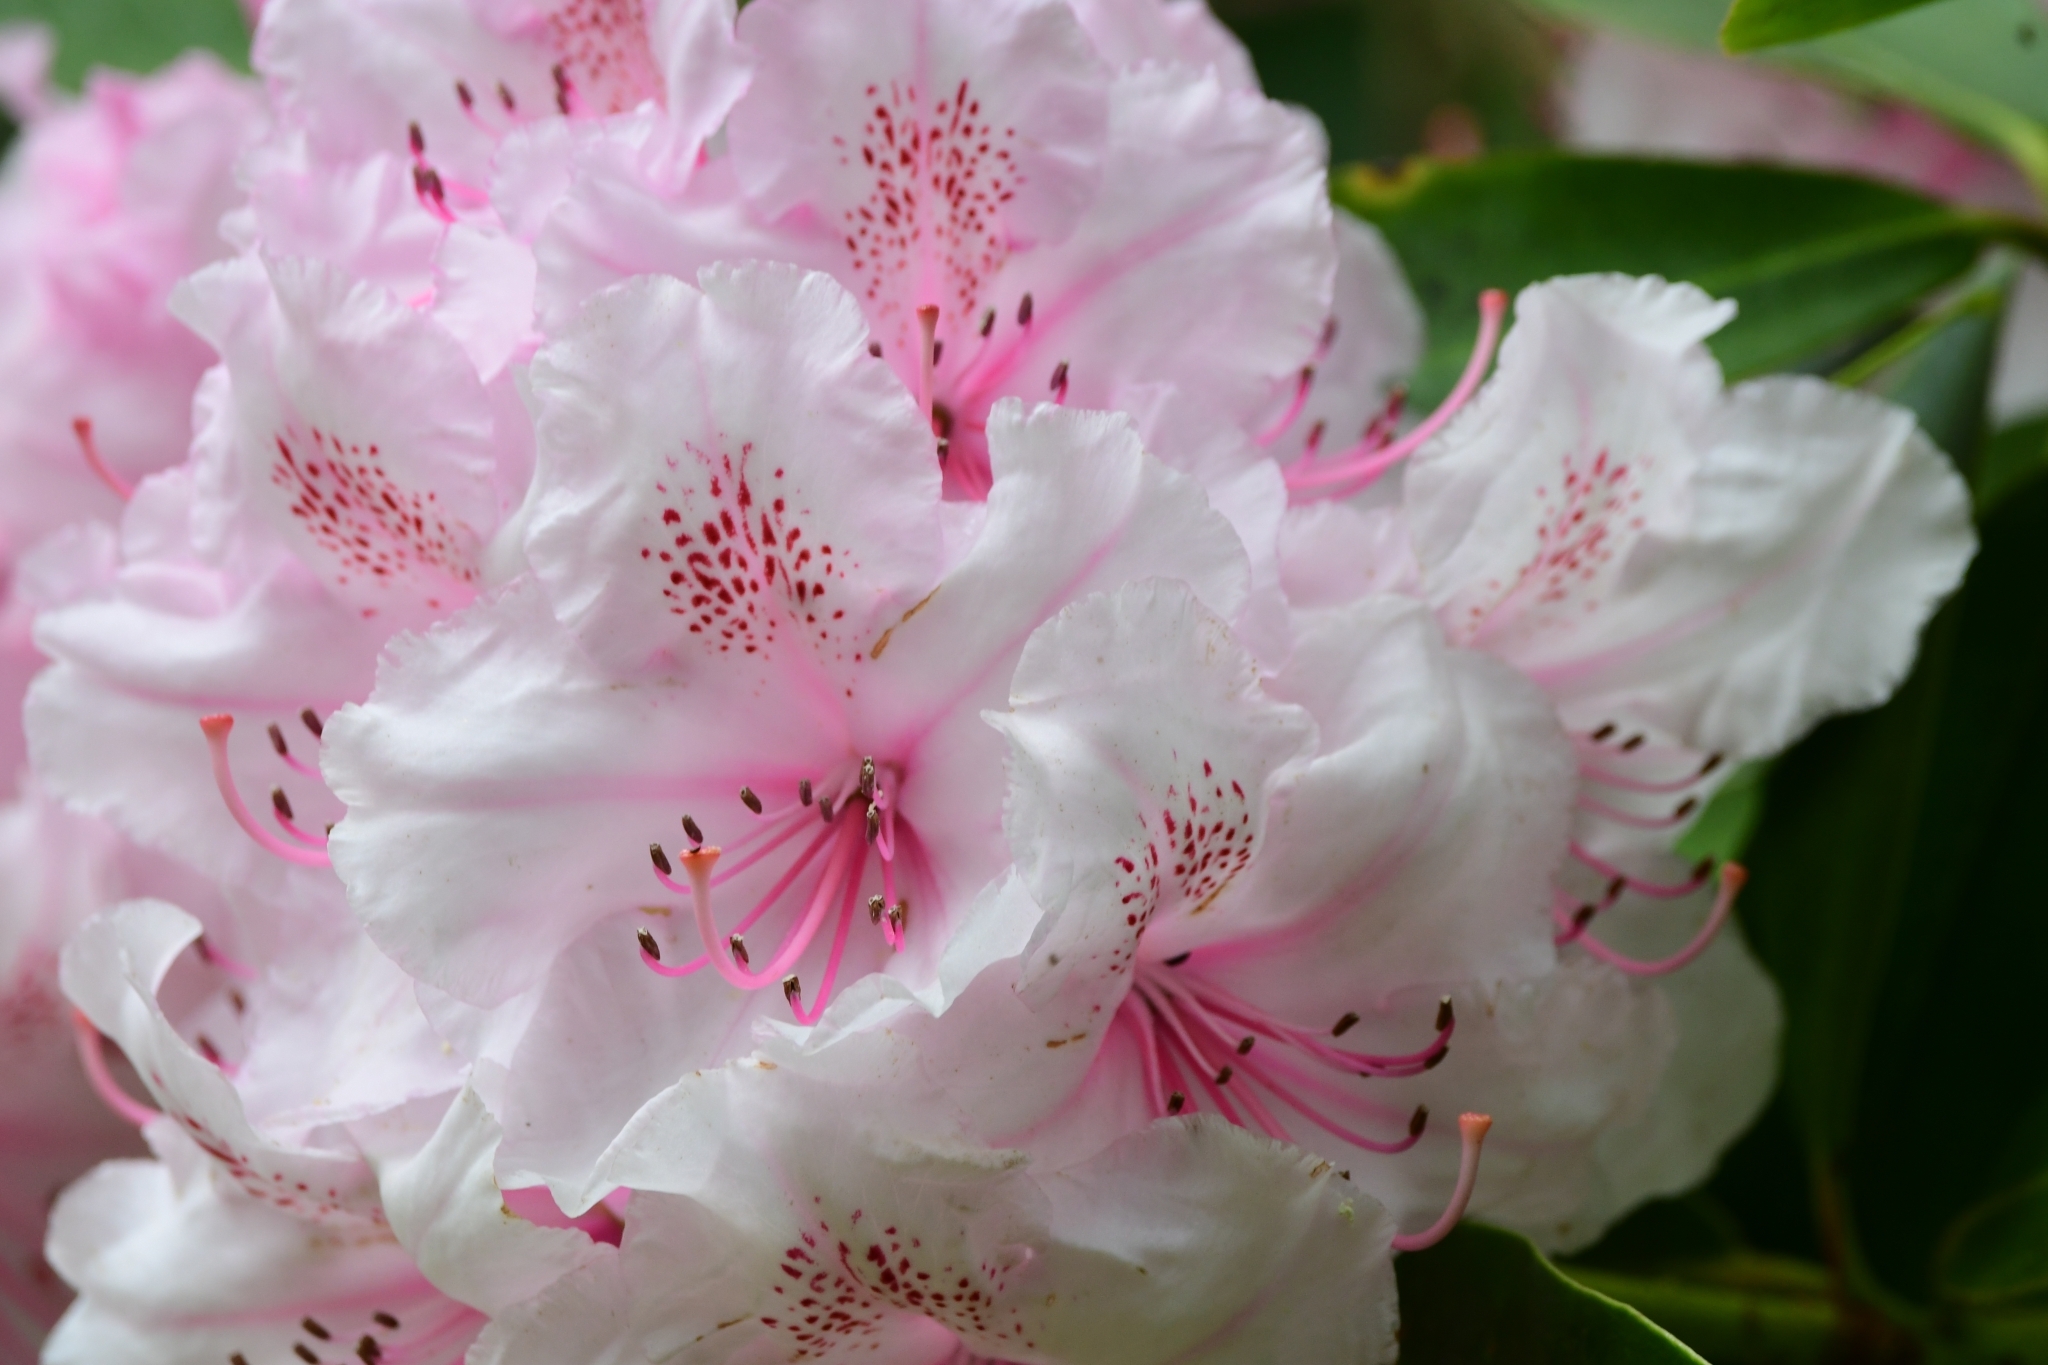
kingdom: Plantae
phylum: Tracheophyta
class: Magnoliopsida
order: Ericales
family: Ericaceae
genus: Rhododendron
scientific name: Rhododendron ponticum
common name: Rhododendron
